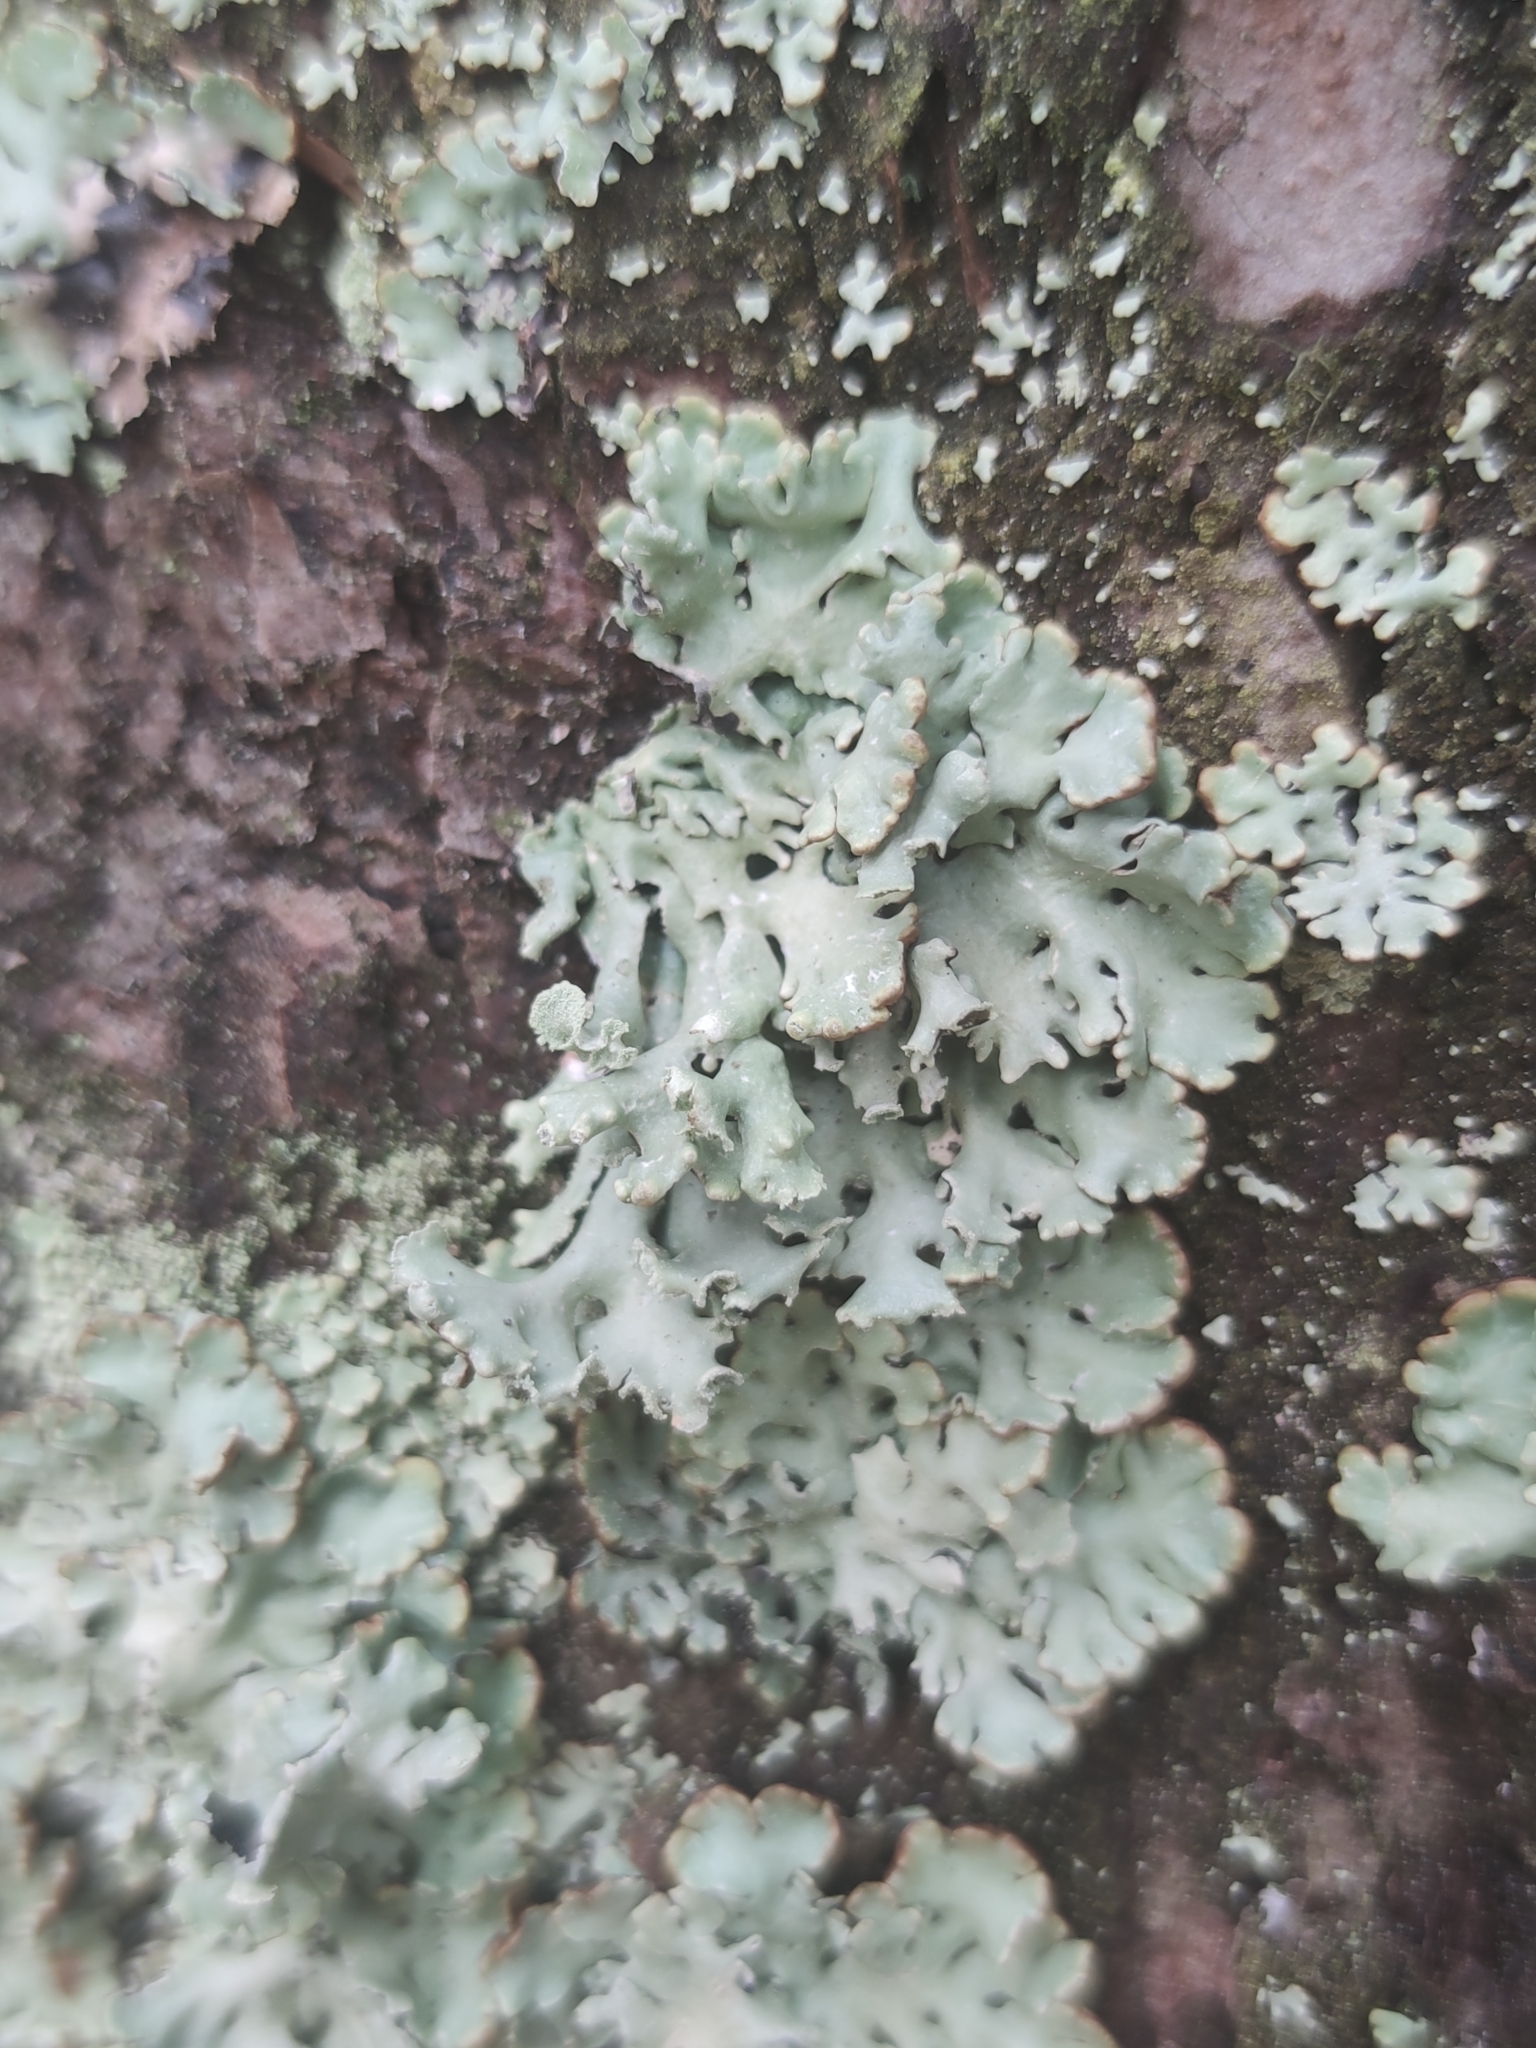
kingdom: Fungi
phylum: Ascomycota
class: Lecanoromycetes
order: Lecanorales
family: Parmeliaceae
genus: Hypogymnia
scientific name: Hypogymnia physodes
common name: Dark crottle
